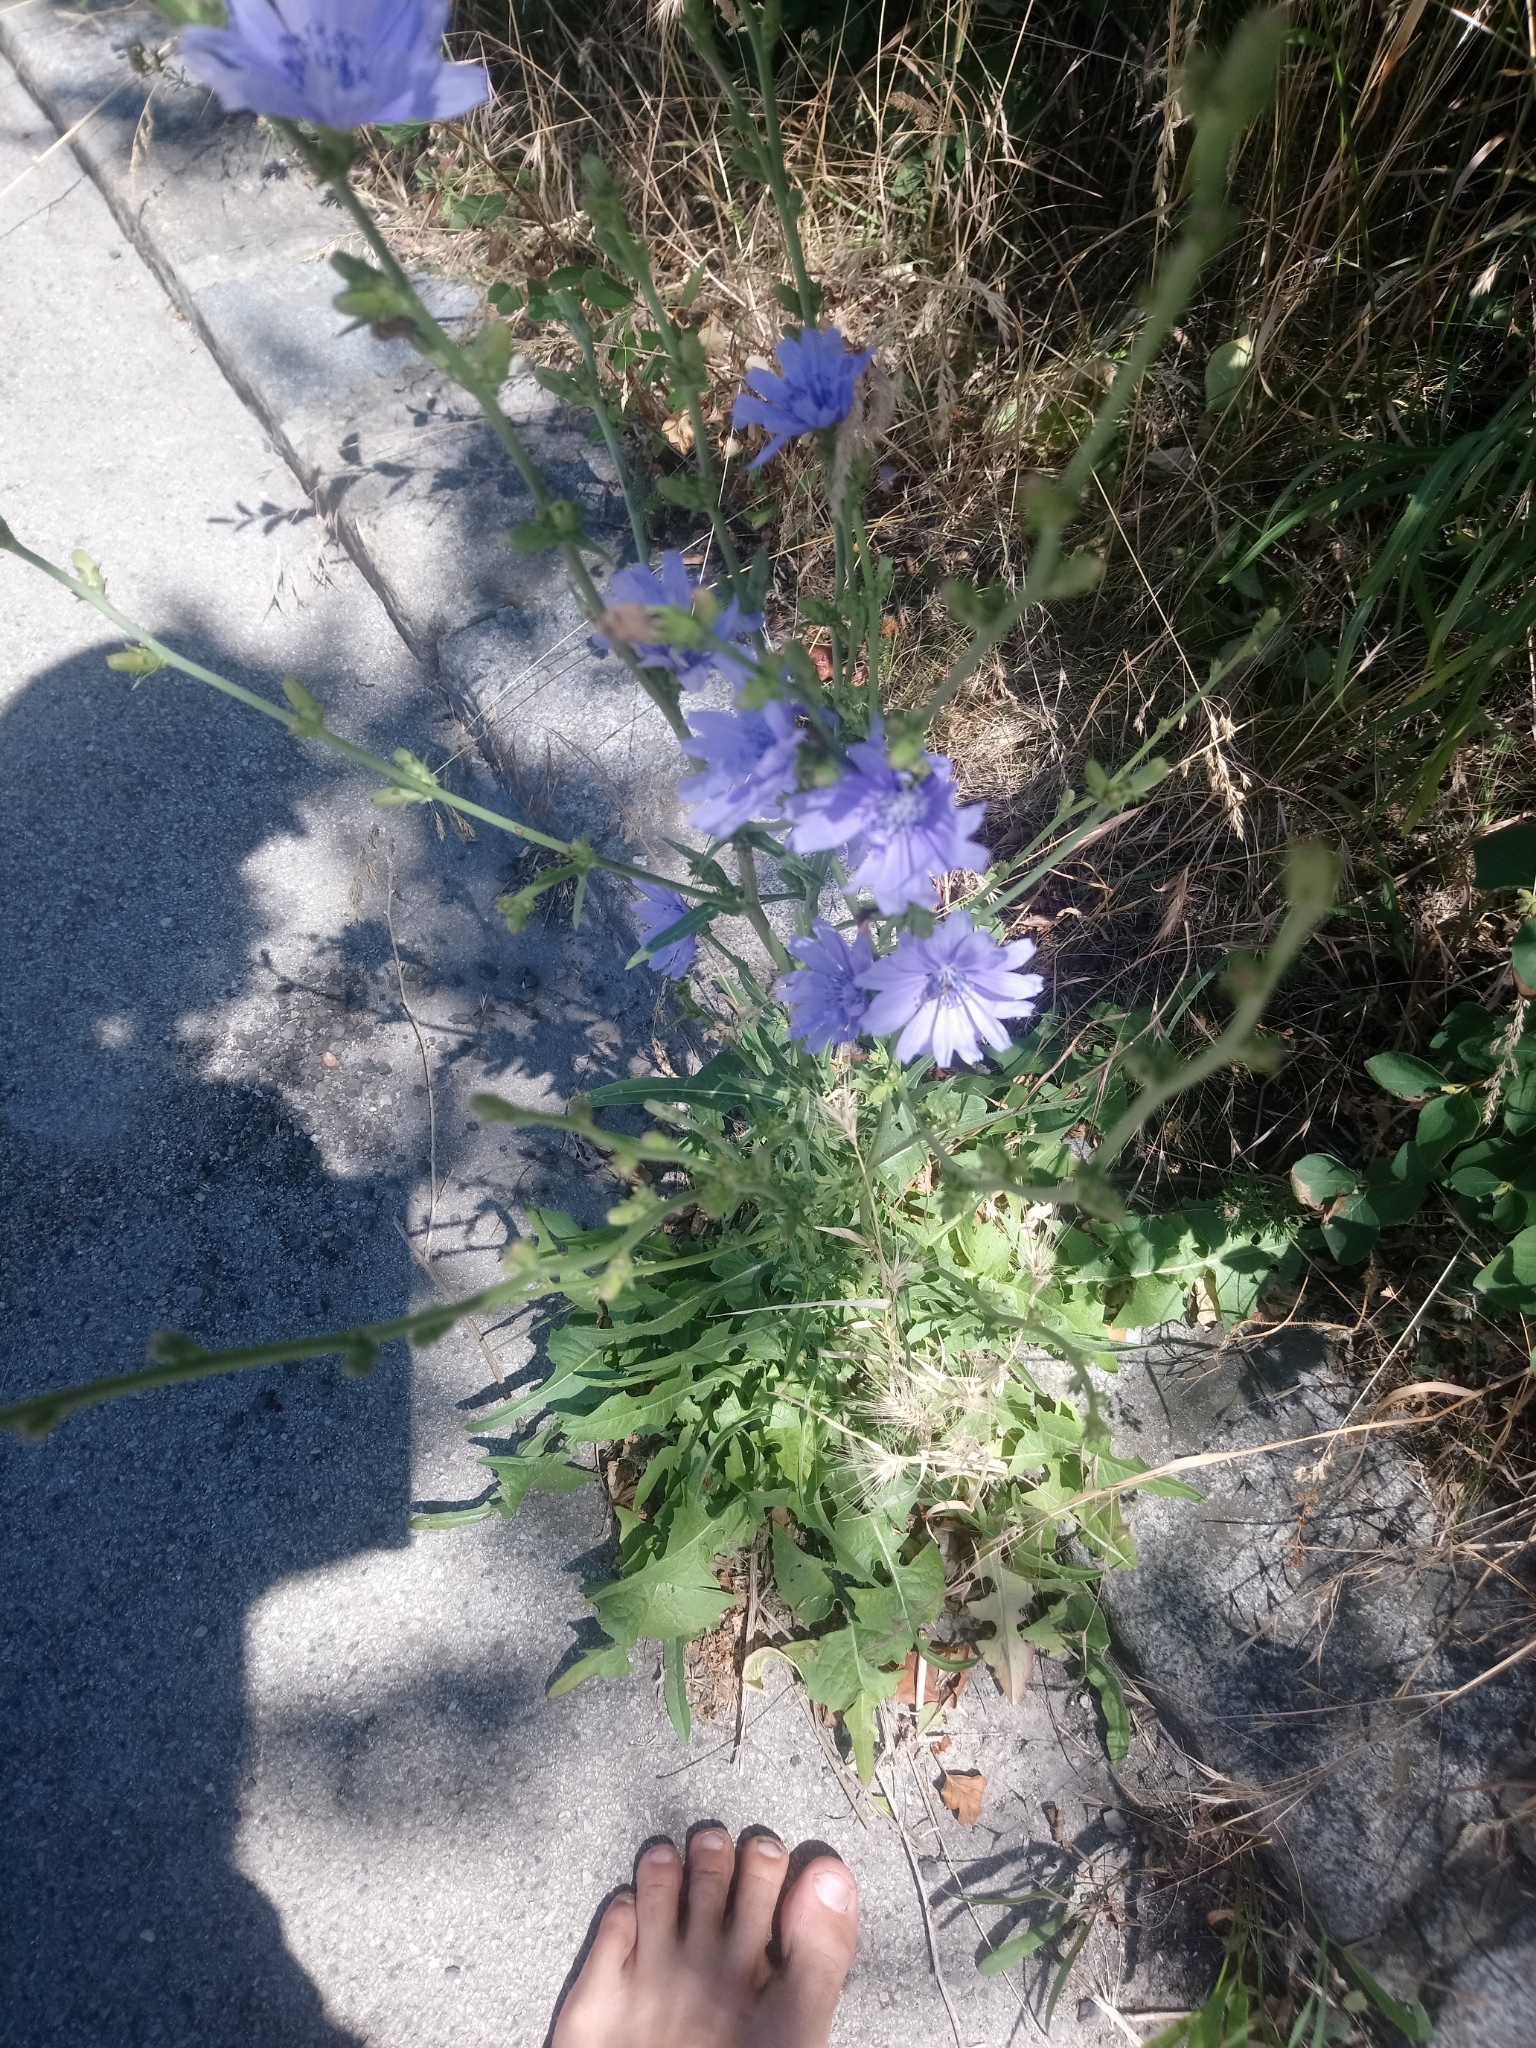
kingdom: Plantae
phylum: Tracheophyta
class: Magnoliopsida
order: Asterales
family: Asteraceae
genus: Cichorium
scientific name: Cichorium intybus
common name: Chicory
